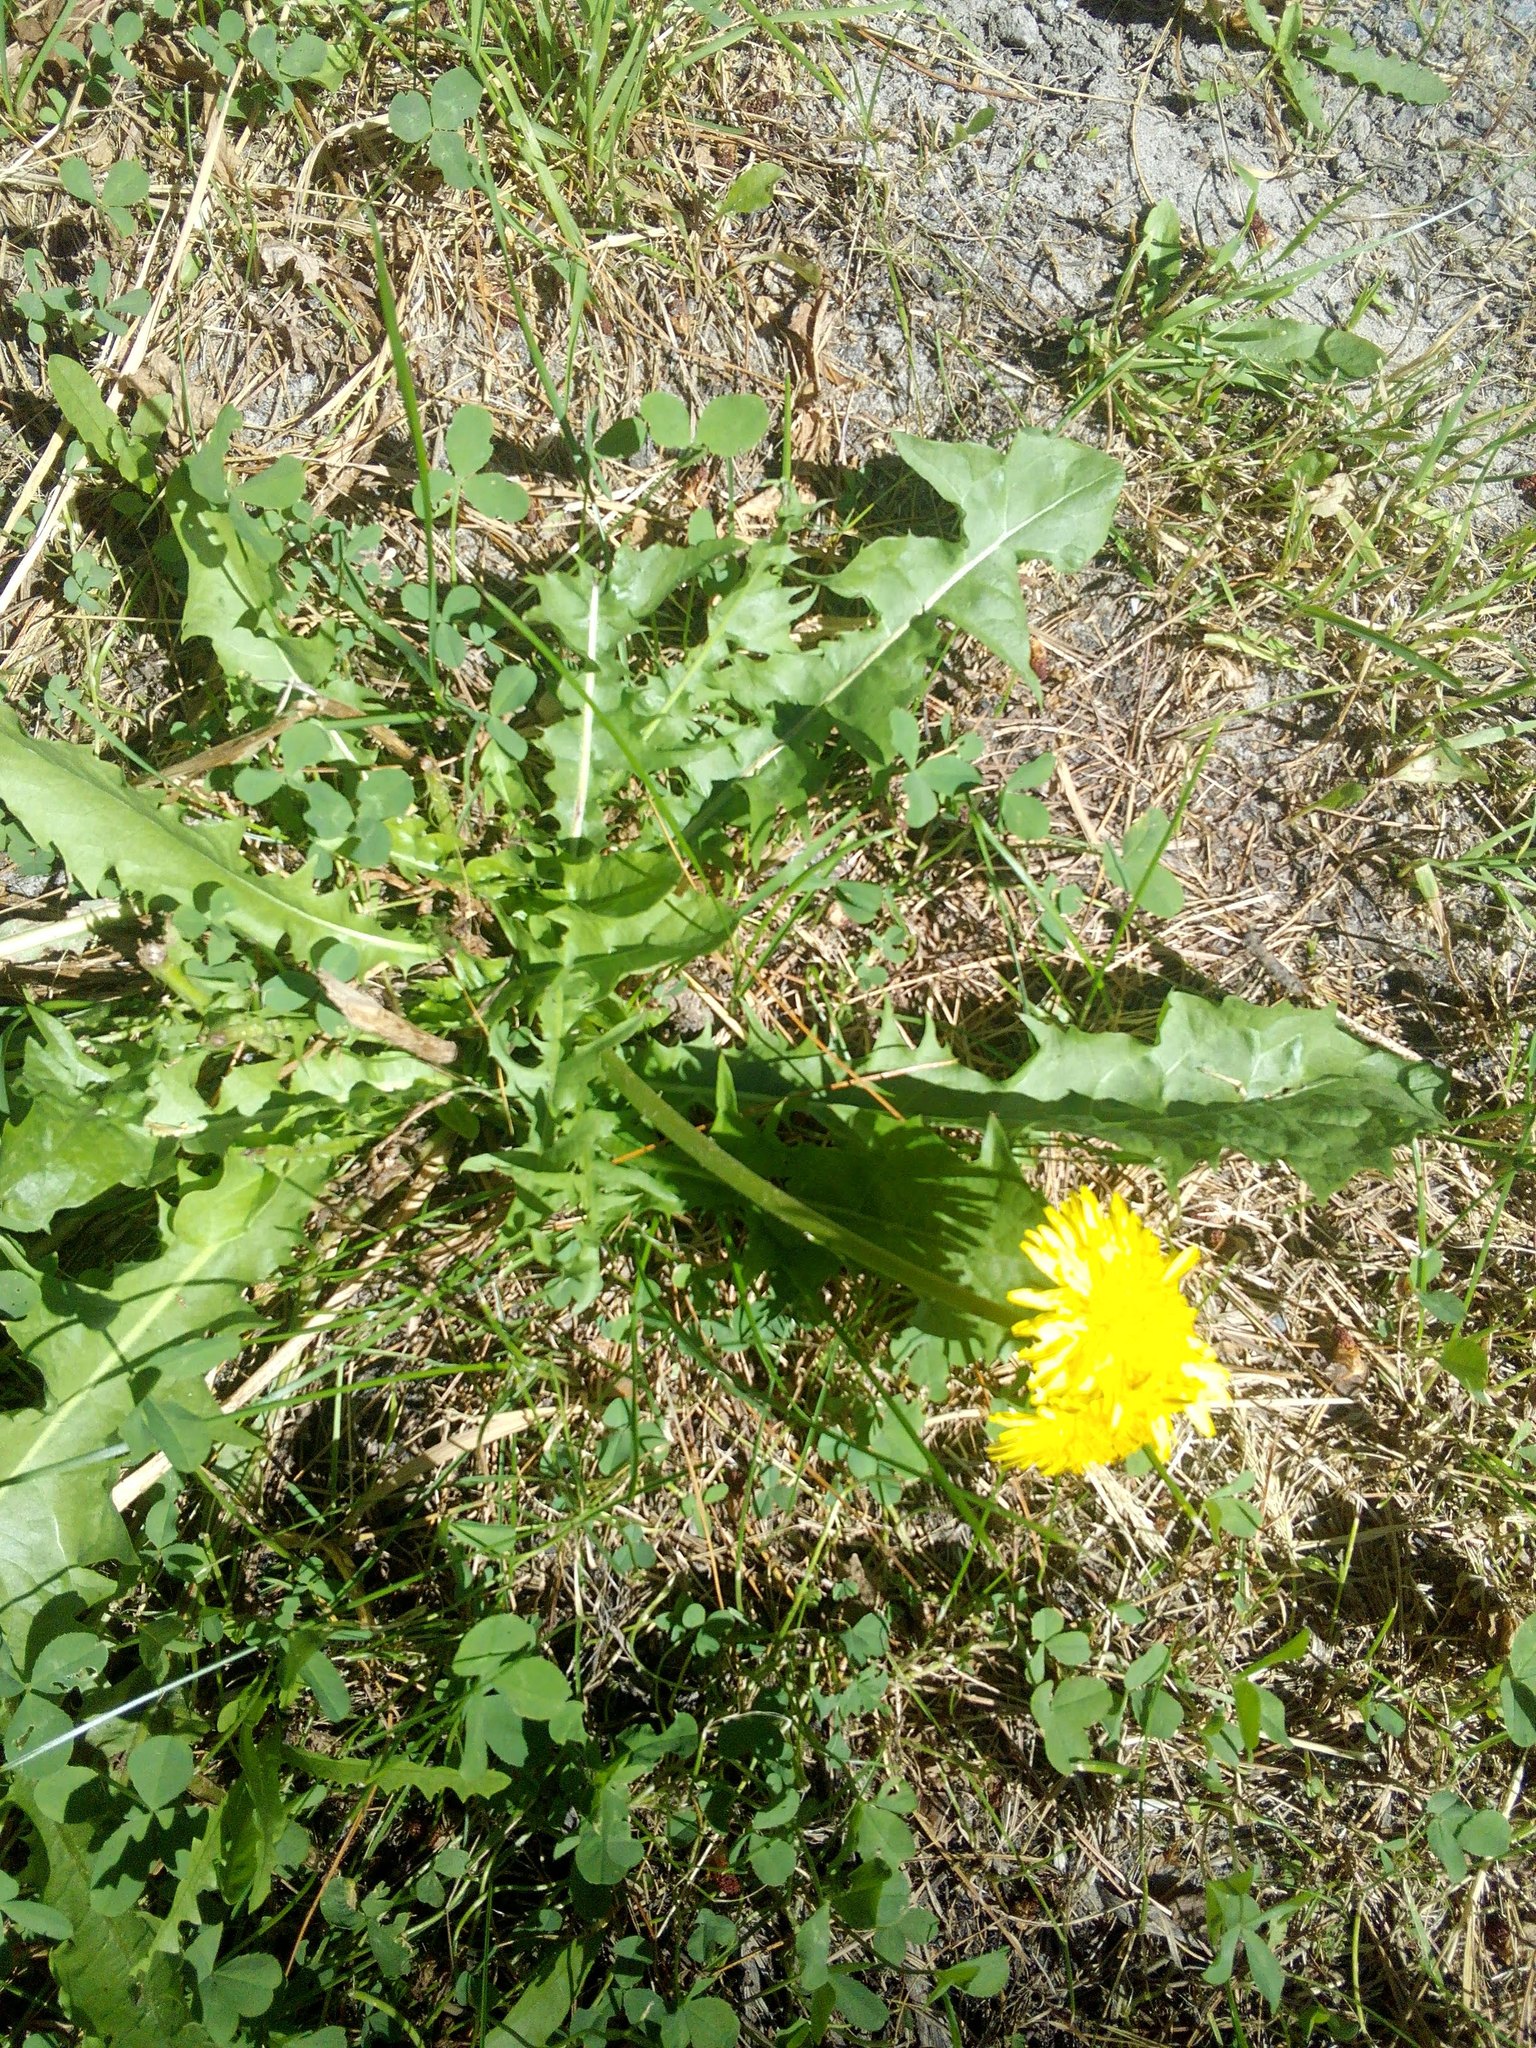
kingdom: Plantae
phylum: Tracheophyta
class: Magnoliopsida
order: Asterales
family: Asteraceae
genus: Taraxacum
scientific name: Taraxacum officinale
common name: Common dandelion
